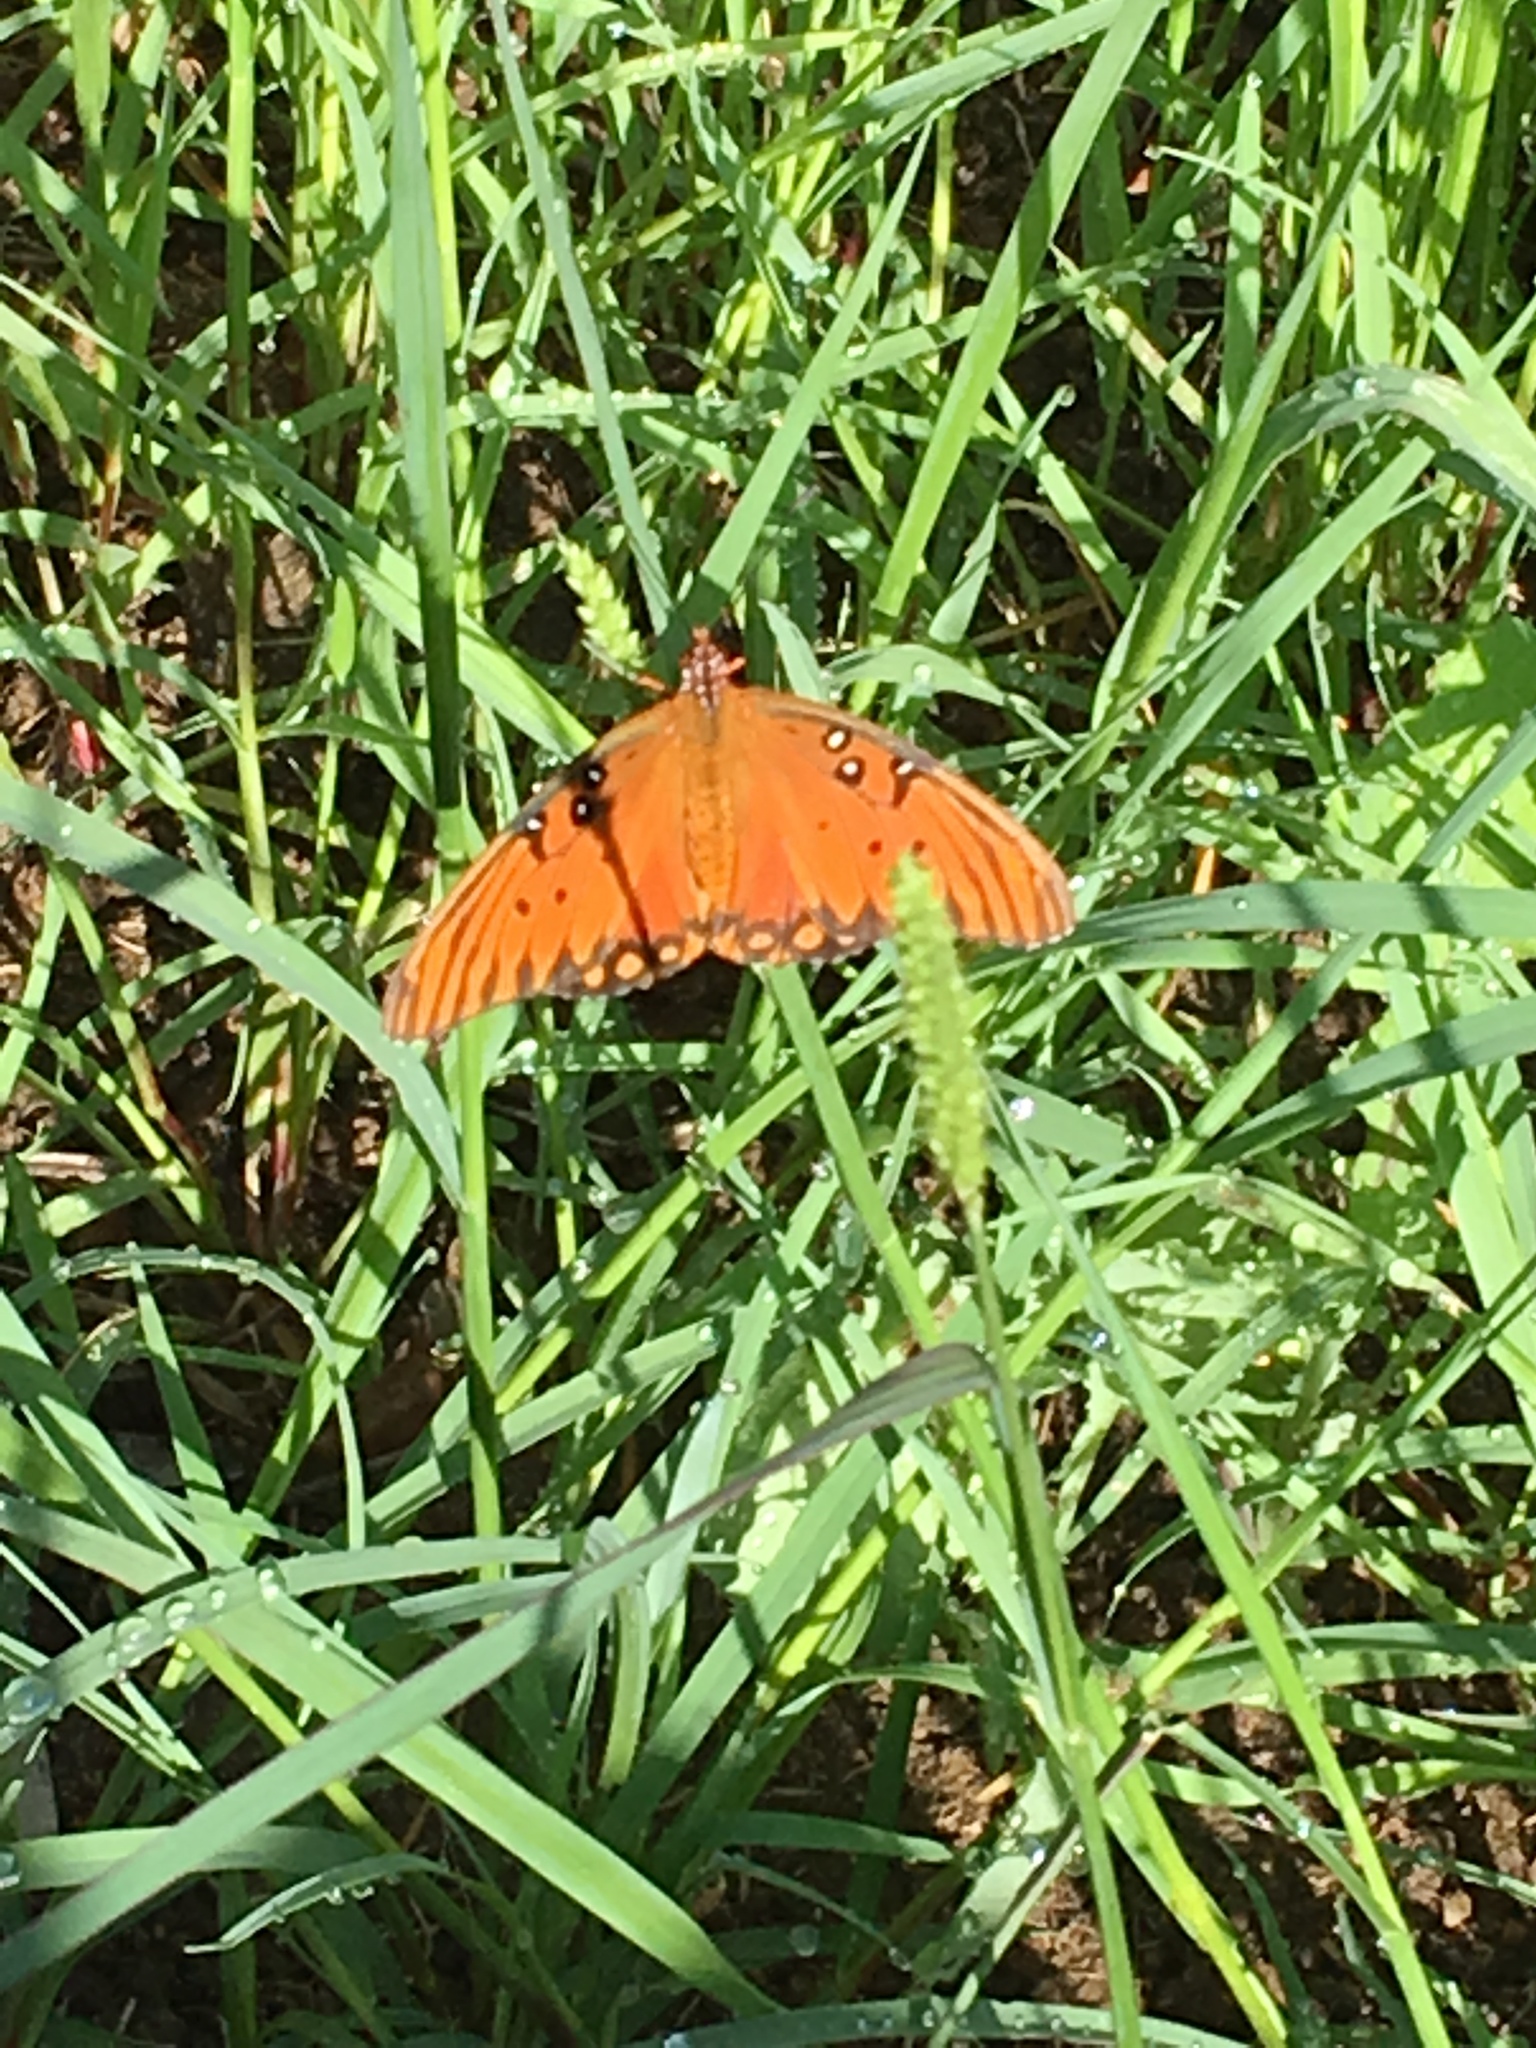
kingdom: Animalia
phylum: Arthropoda
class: Insecta
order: Lepidoptera
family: Nymphalidae
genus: Dione
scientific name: Dione vanillae
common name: Gulf fritillary
